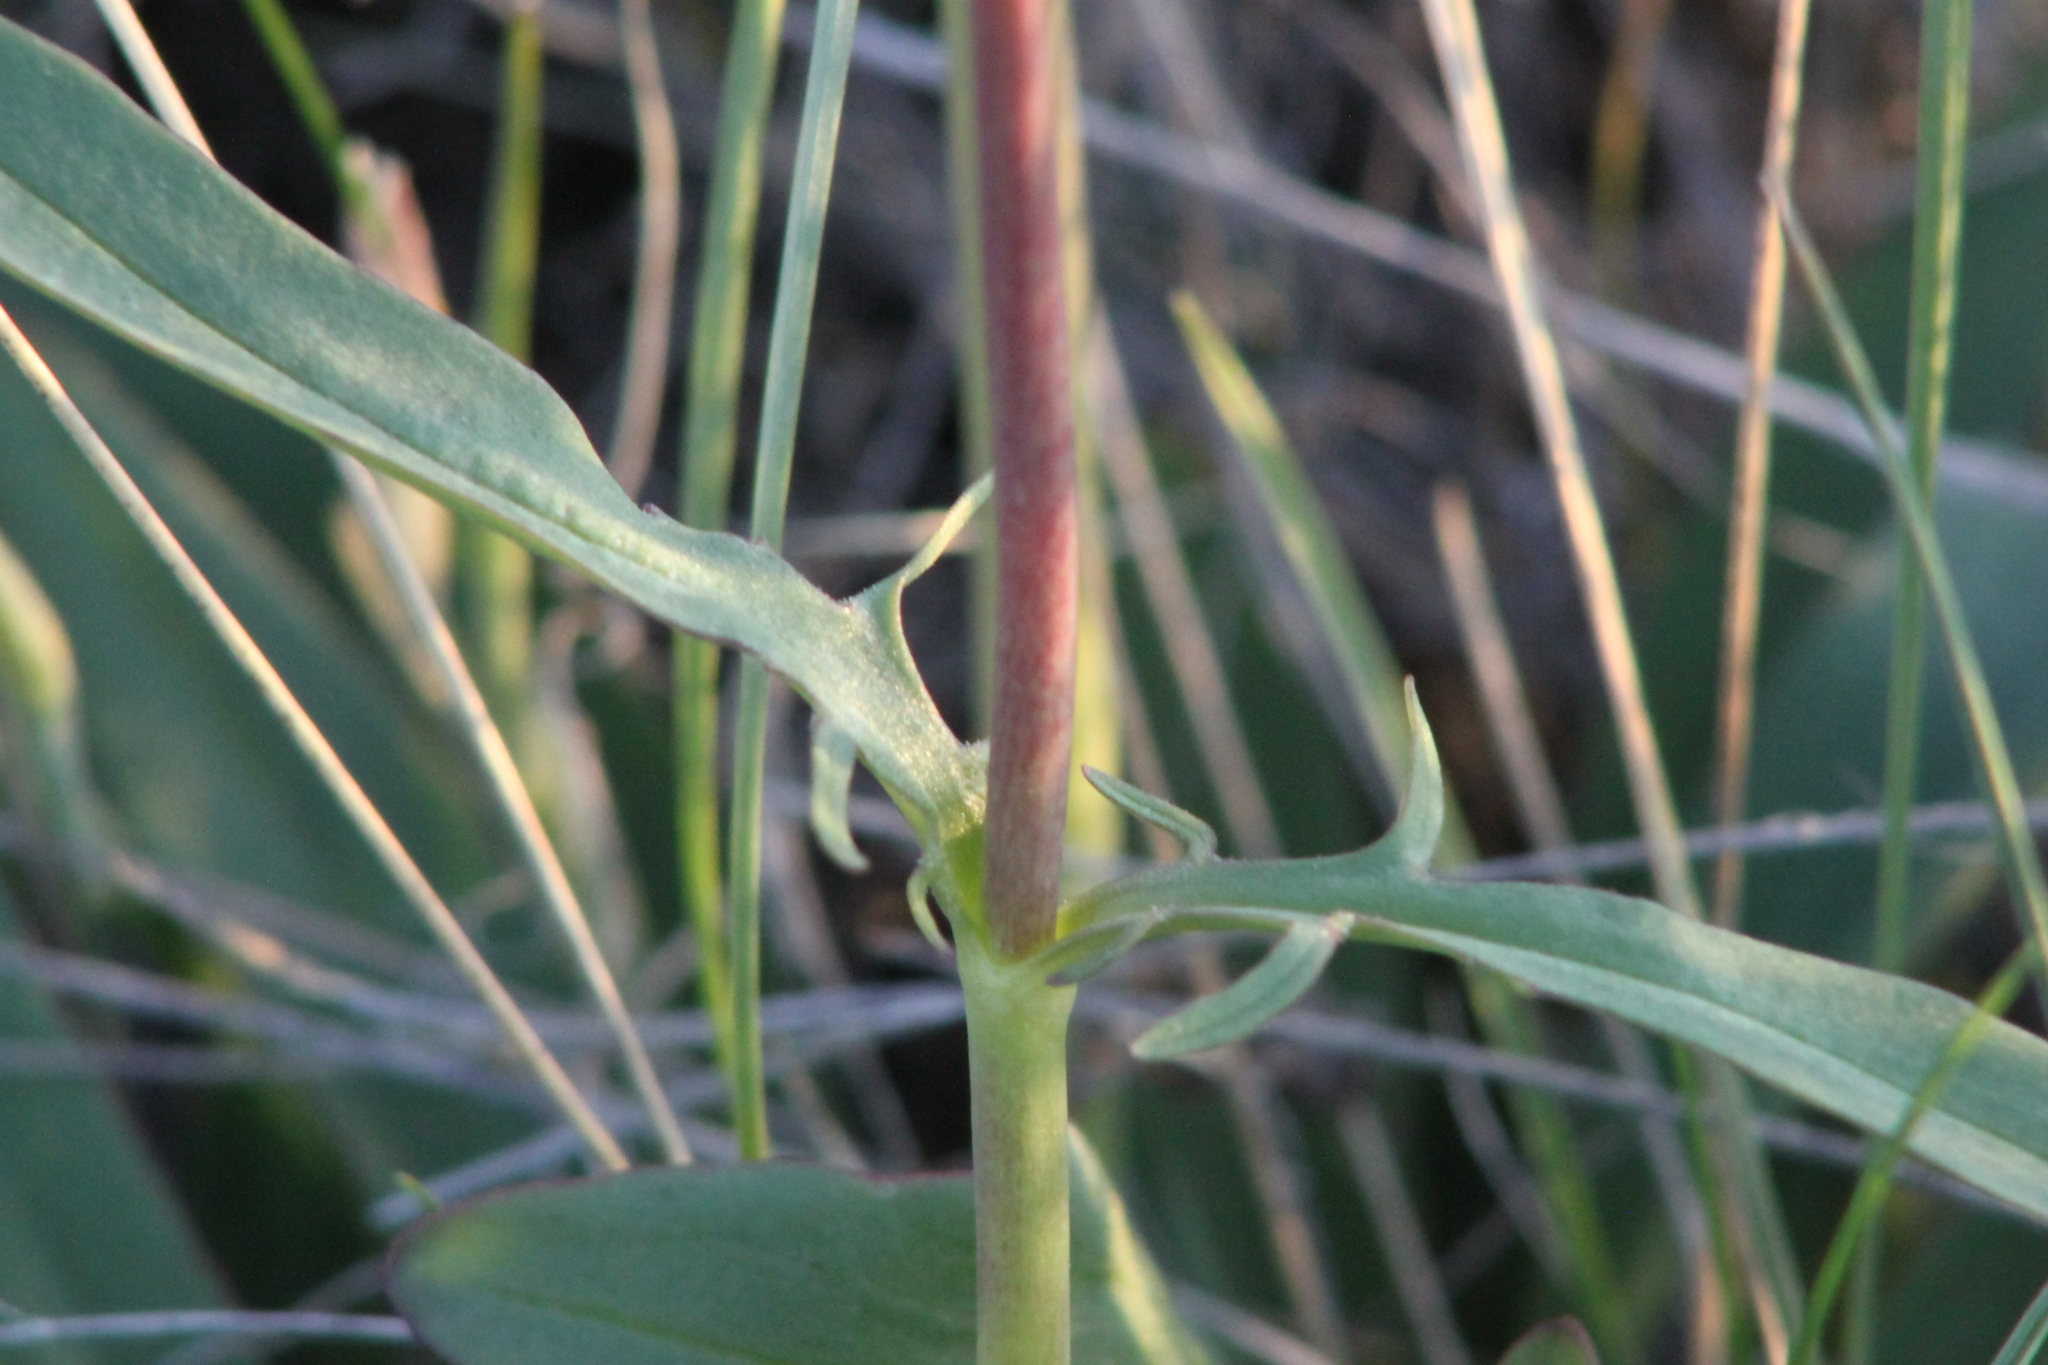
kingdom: Plantae
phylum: Tracheophyta
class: Magnoliopsida
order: Dipsacales
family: Caprifoliaceae
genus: Valeriana
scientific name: Valeriana tuberosa
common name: Tuberous valerian
